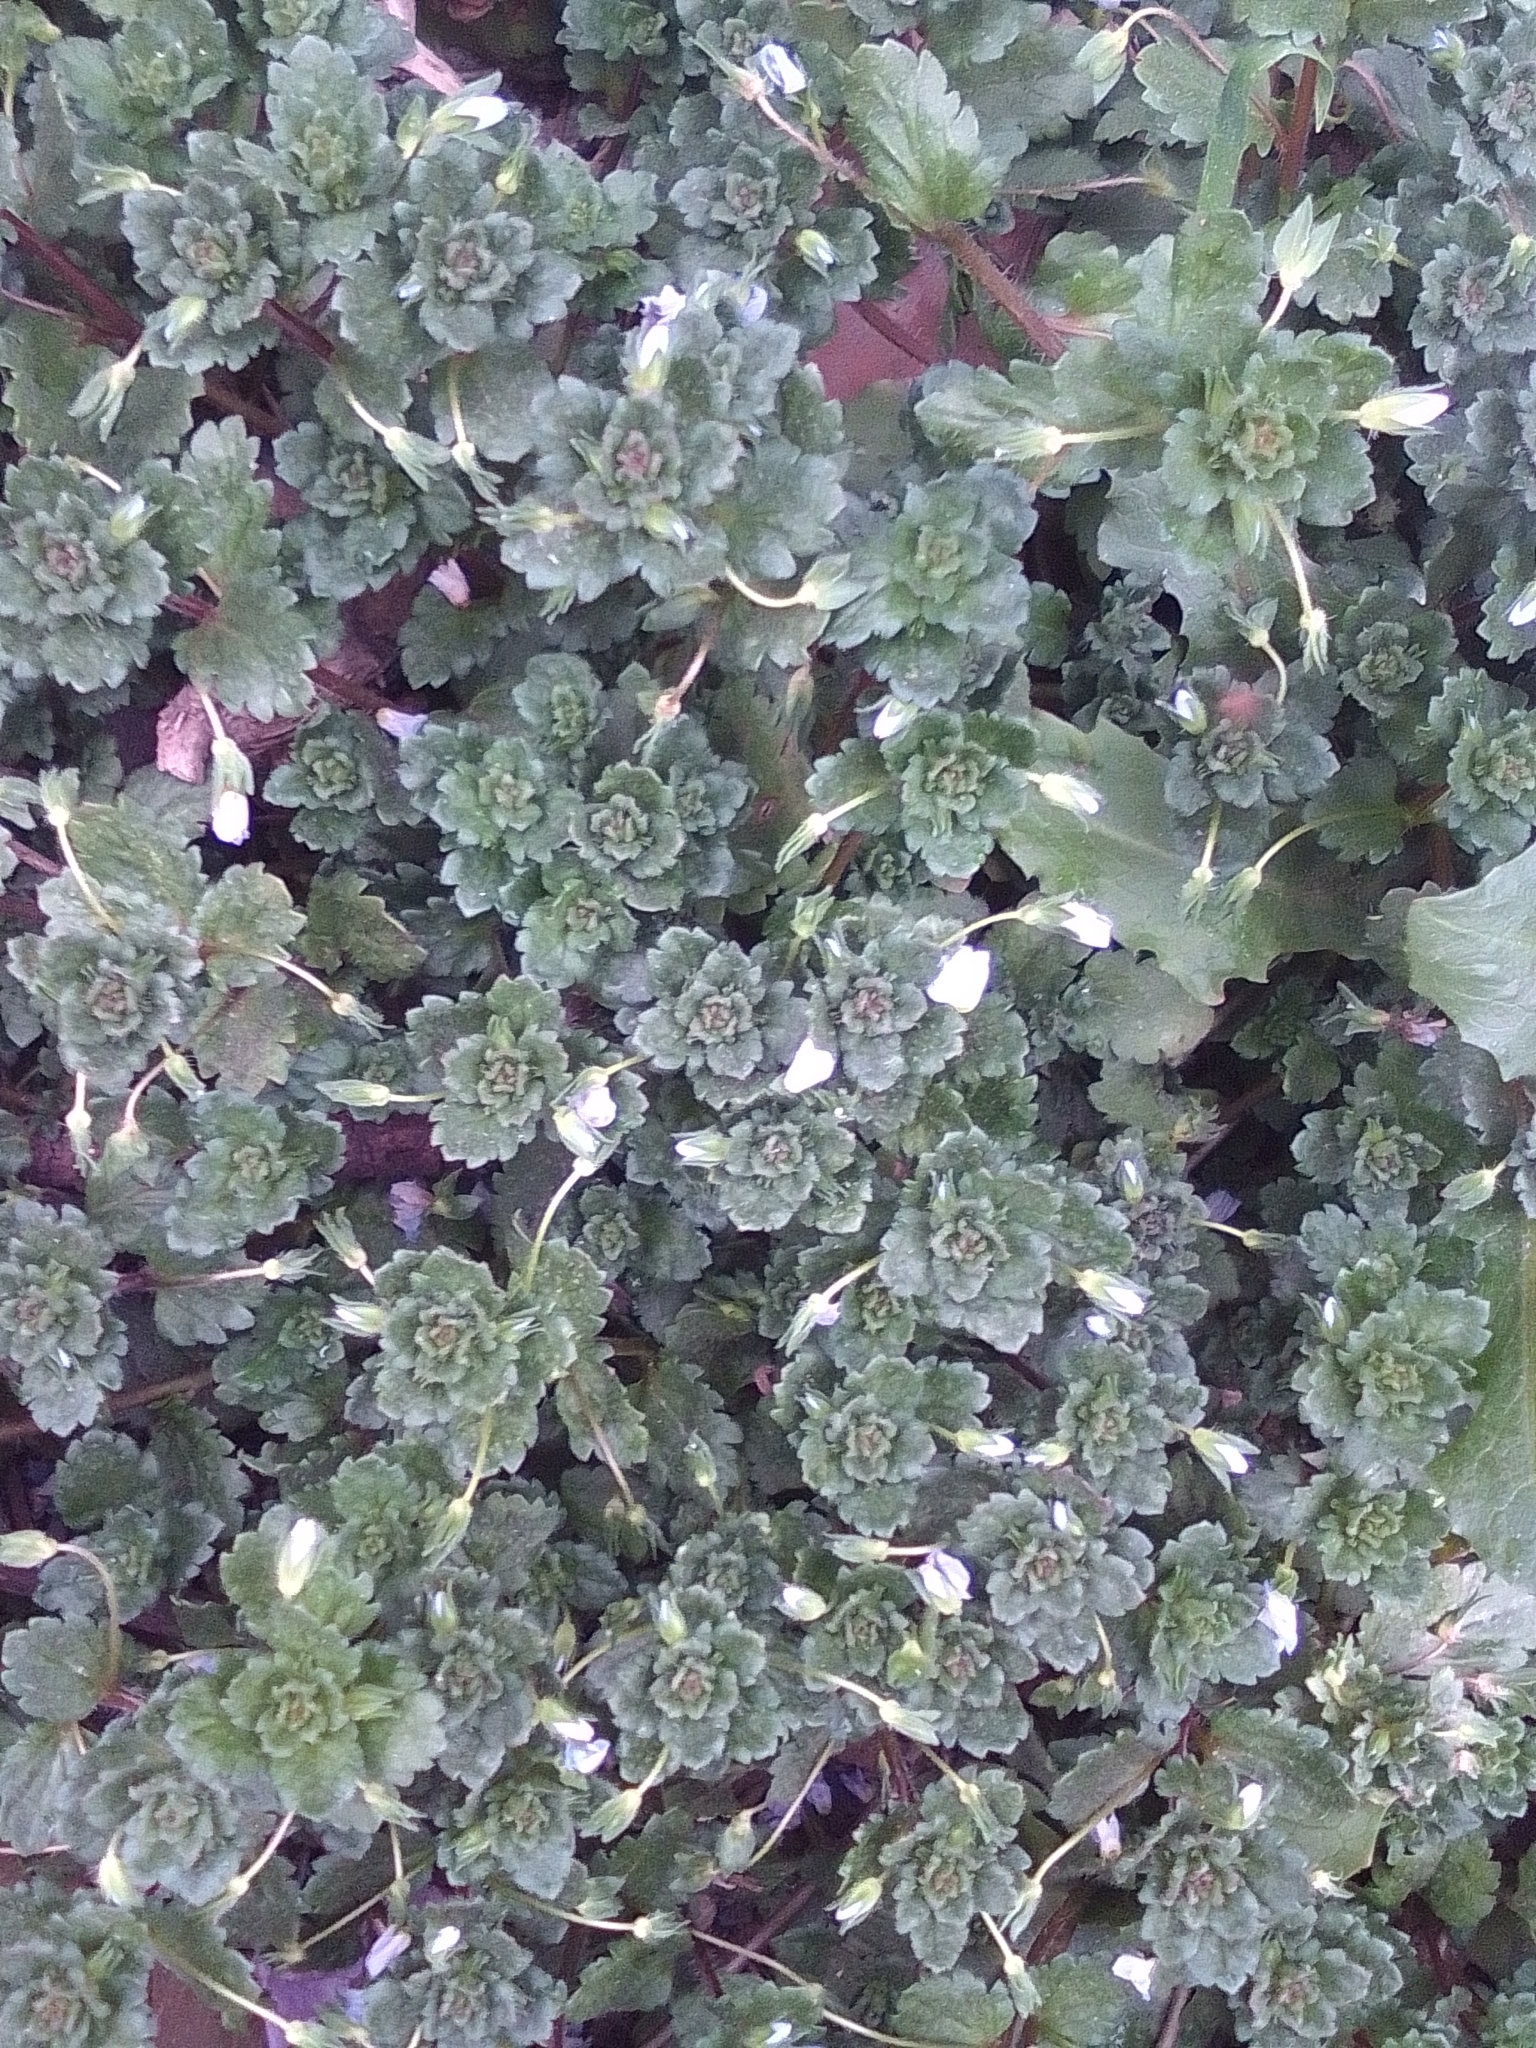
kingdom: Plantae
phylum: Tracheophyta
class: Magnoliopsida
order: Lamiales
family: Plantaginaceae
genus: Veronica
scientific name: Veronica persica
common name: Common field-speedwell
